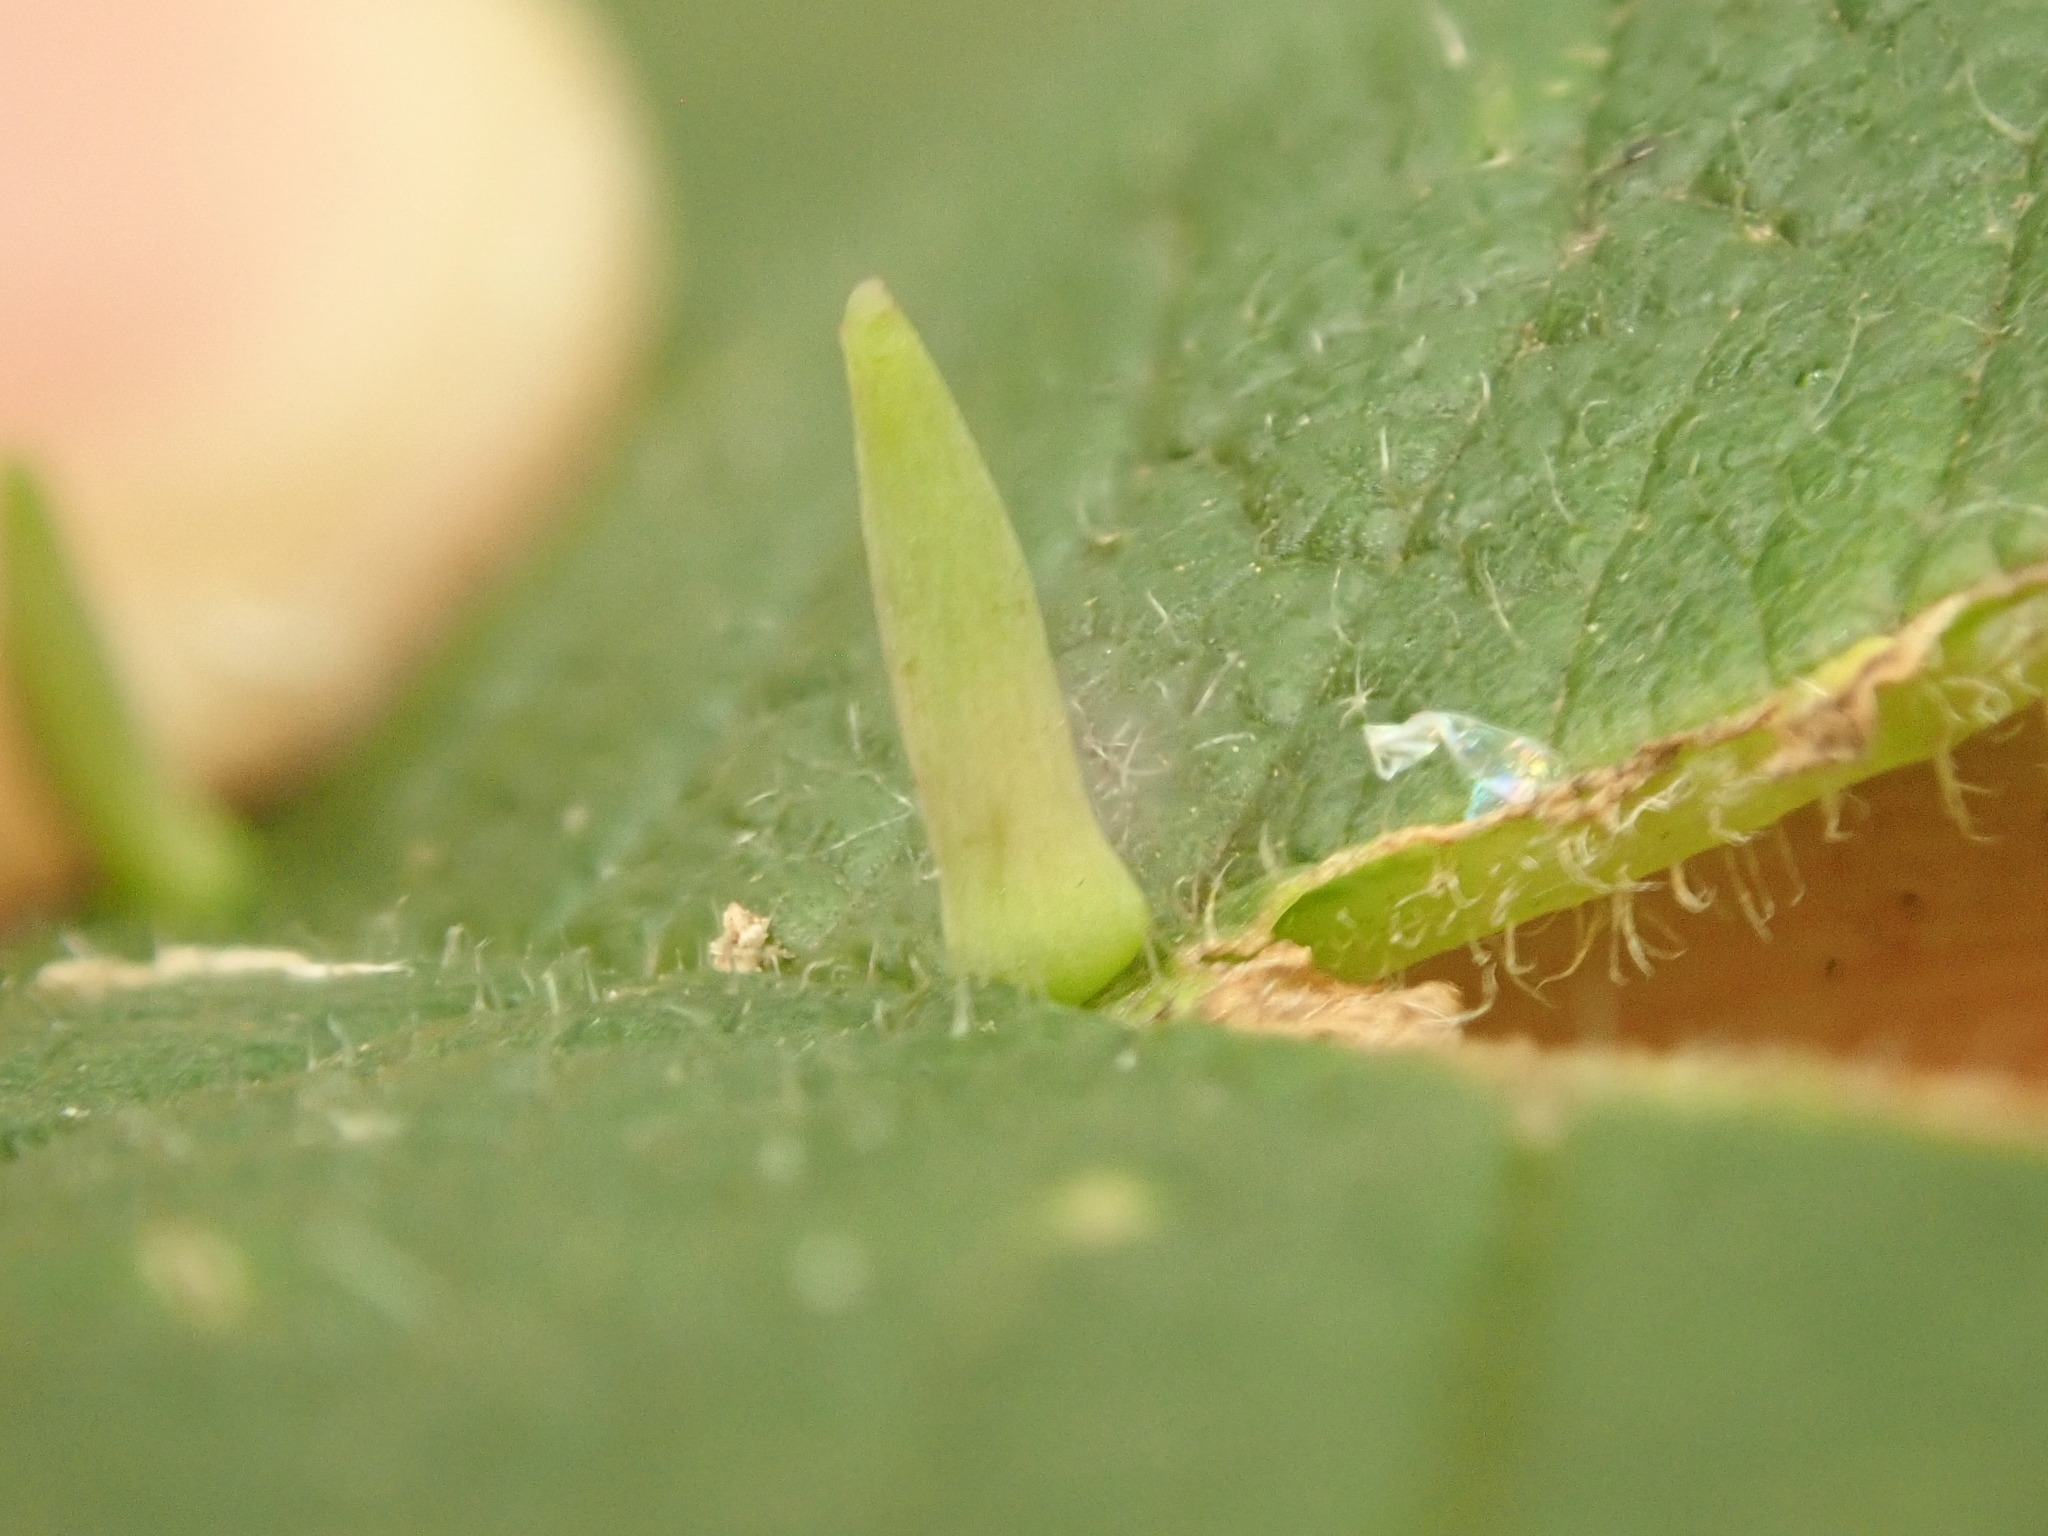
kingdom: Animalia
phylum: Arthropoda
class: Insecta
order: Diptera
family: Cecidomyiidae
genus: Celticecis
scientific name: Celticecis
